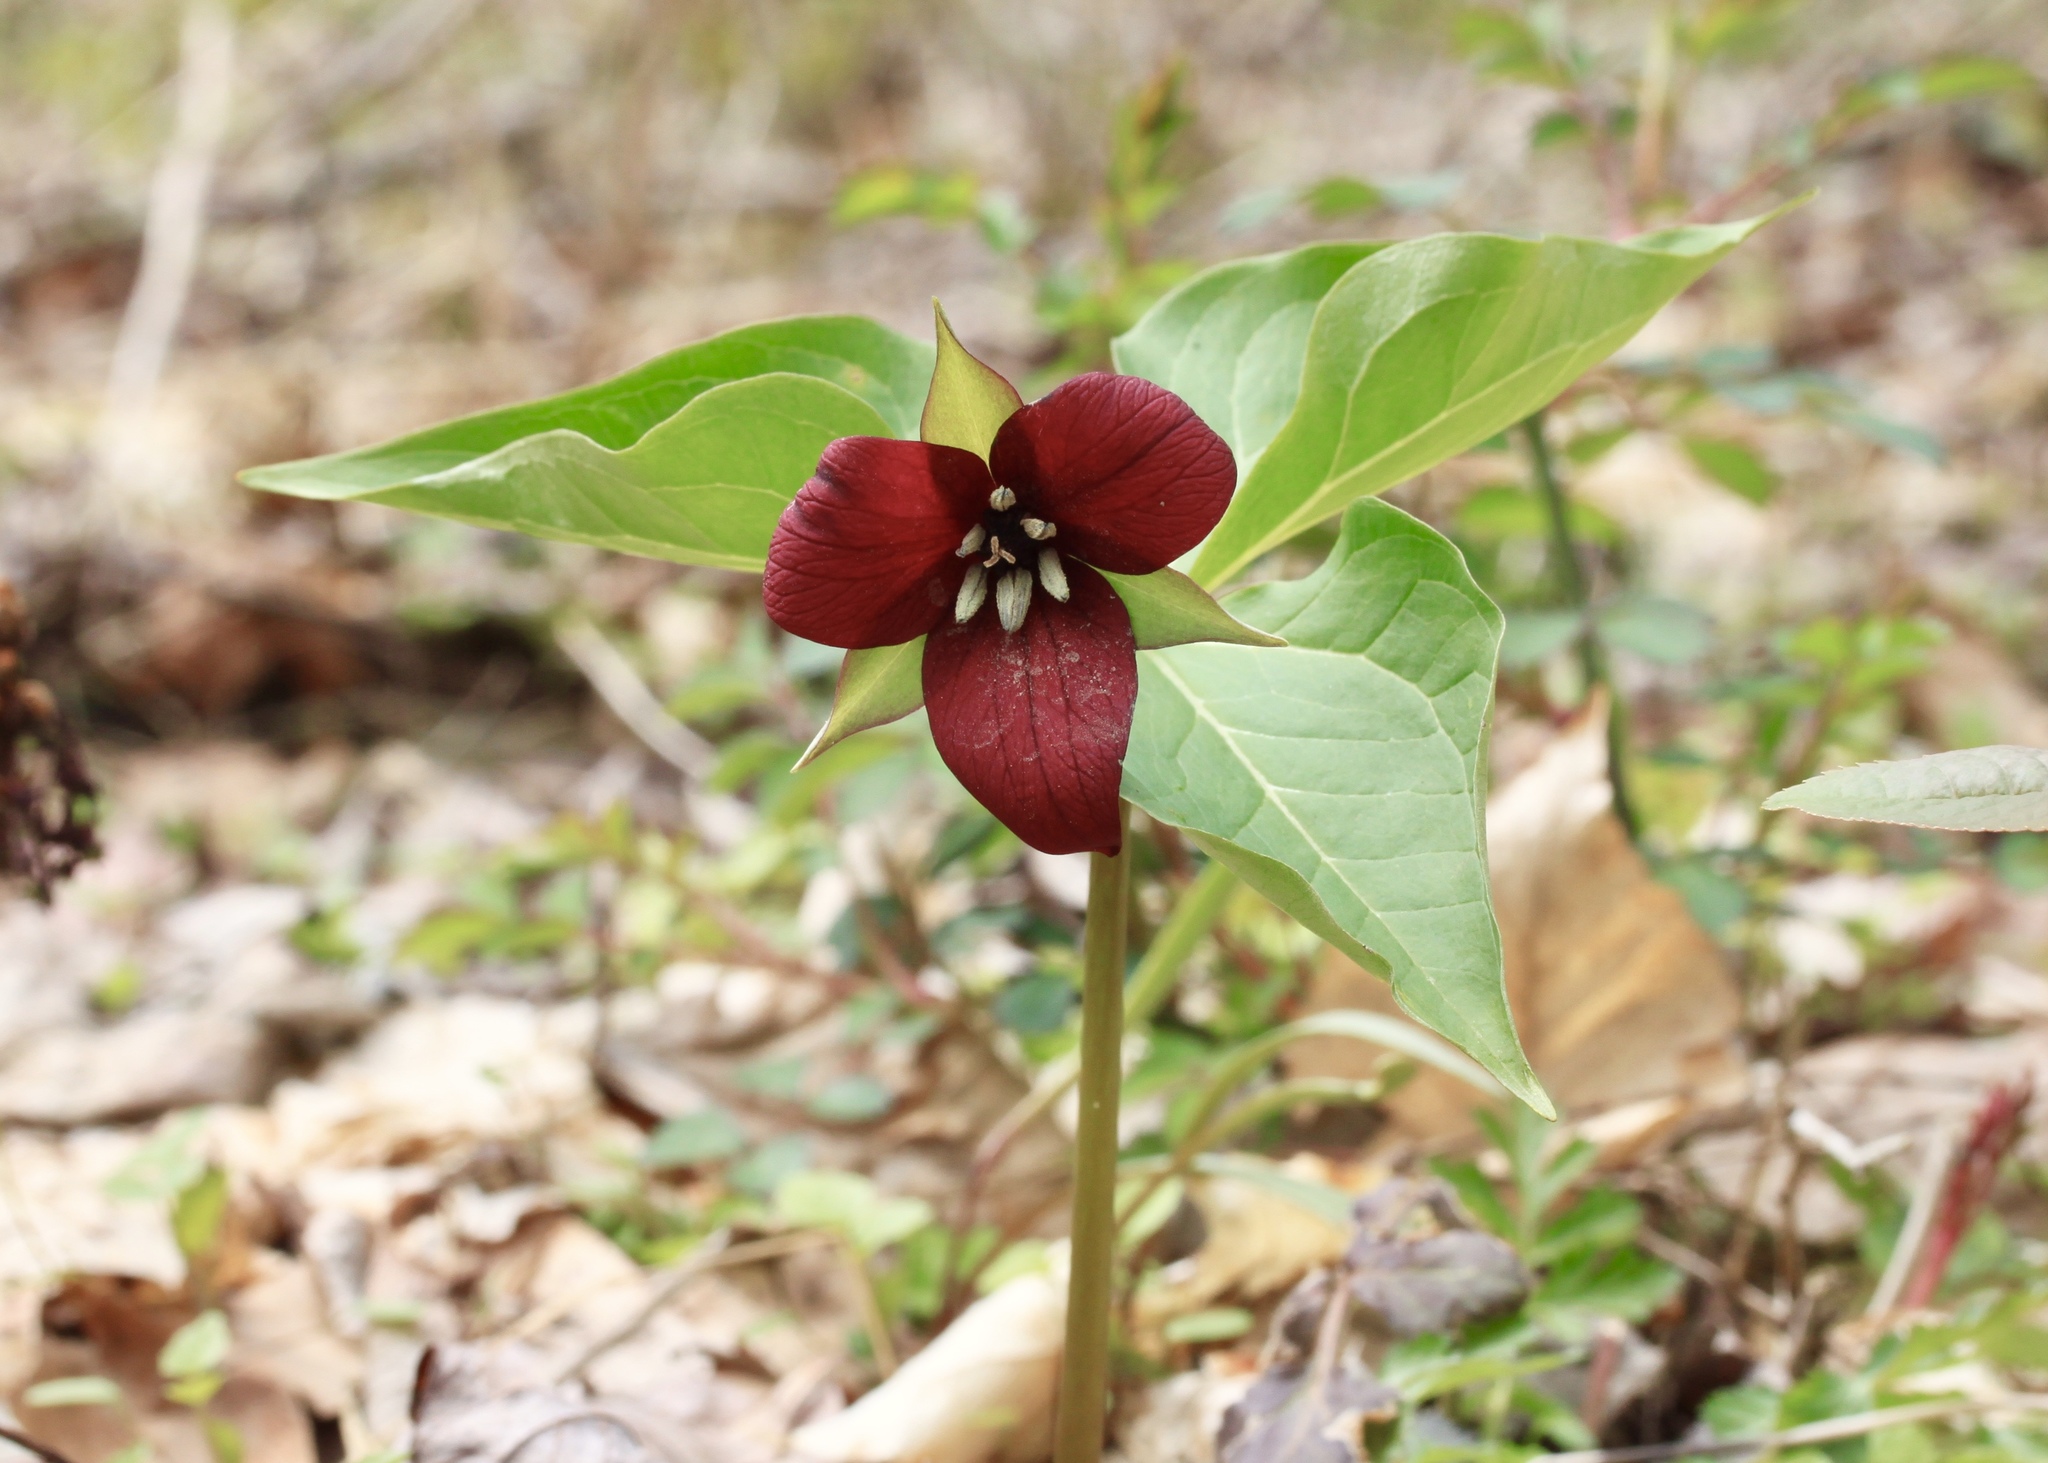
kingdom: Plantae
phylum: Tracheophyta
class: Liliopsida
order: Liliales
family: Melanthiaceae
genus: Trillium
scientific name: Trillium erectum
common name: Purple trillium
